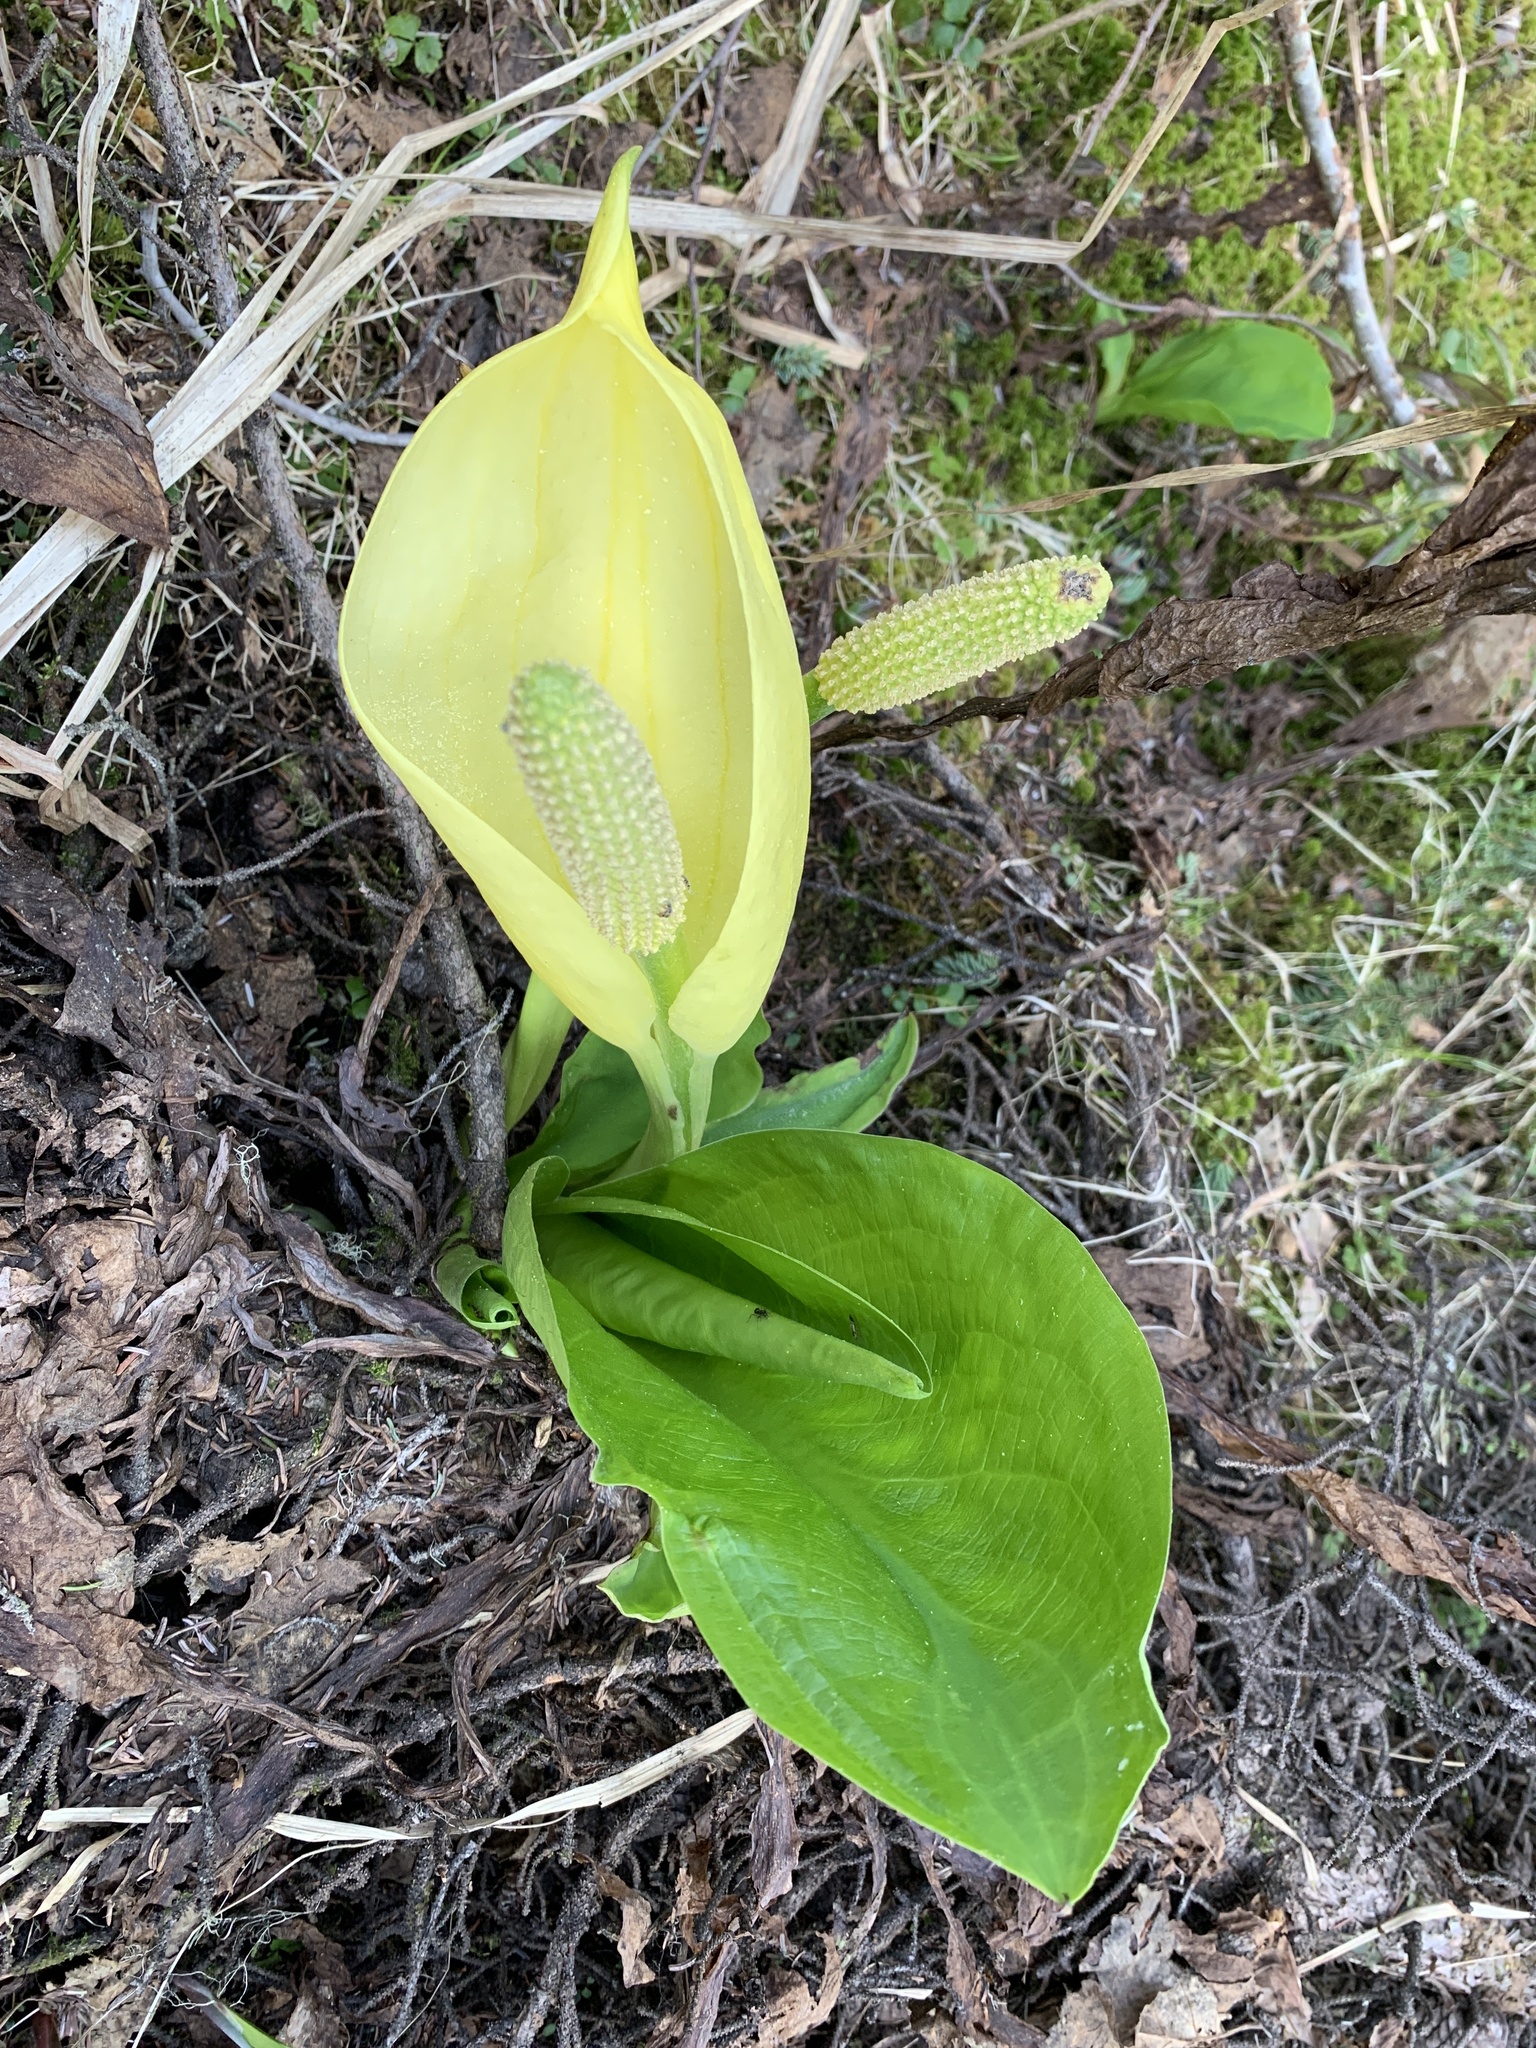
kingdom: Plantae
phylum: Tracheophyta
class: Liliopsida
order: Alismatales
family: Araceae
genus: Lysichiton
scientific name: Lysichiton americanus
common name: American skunk cabbage
